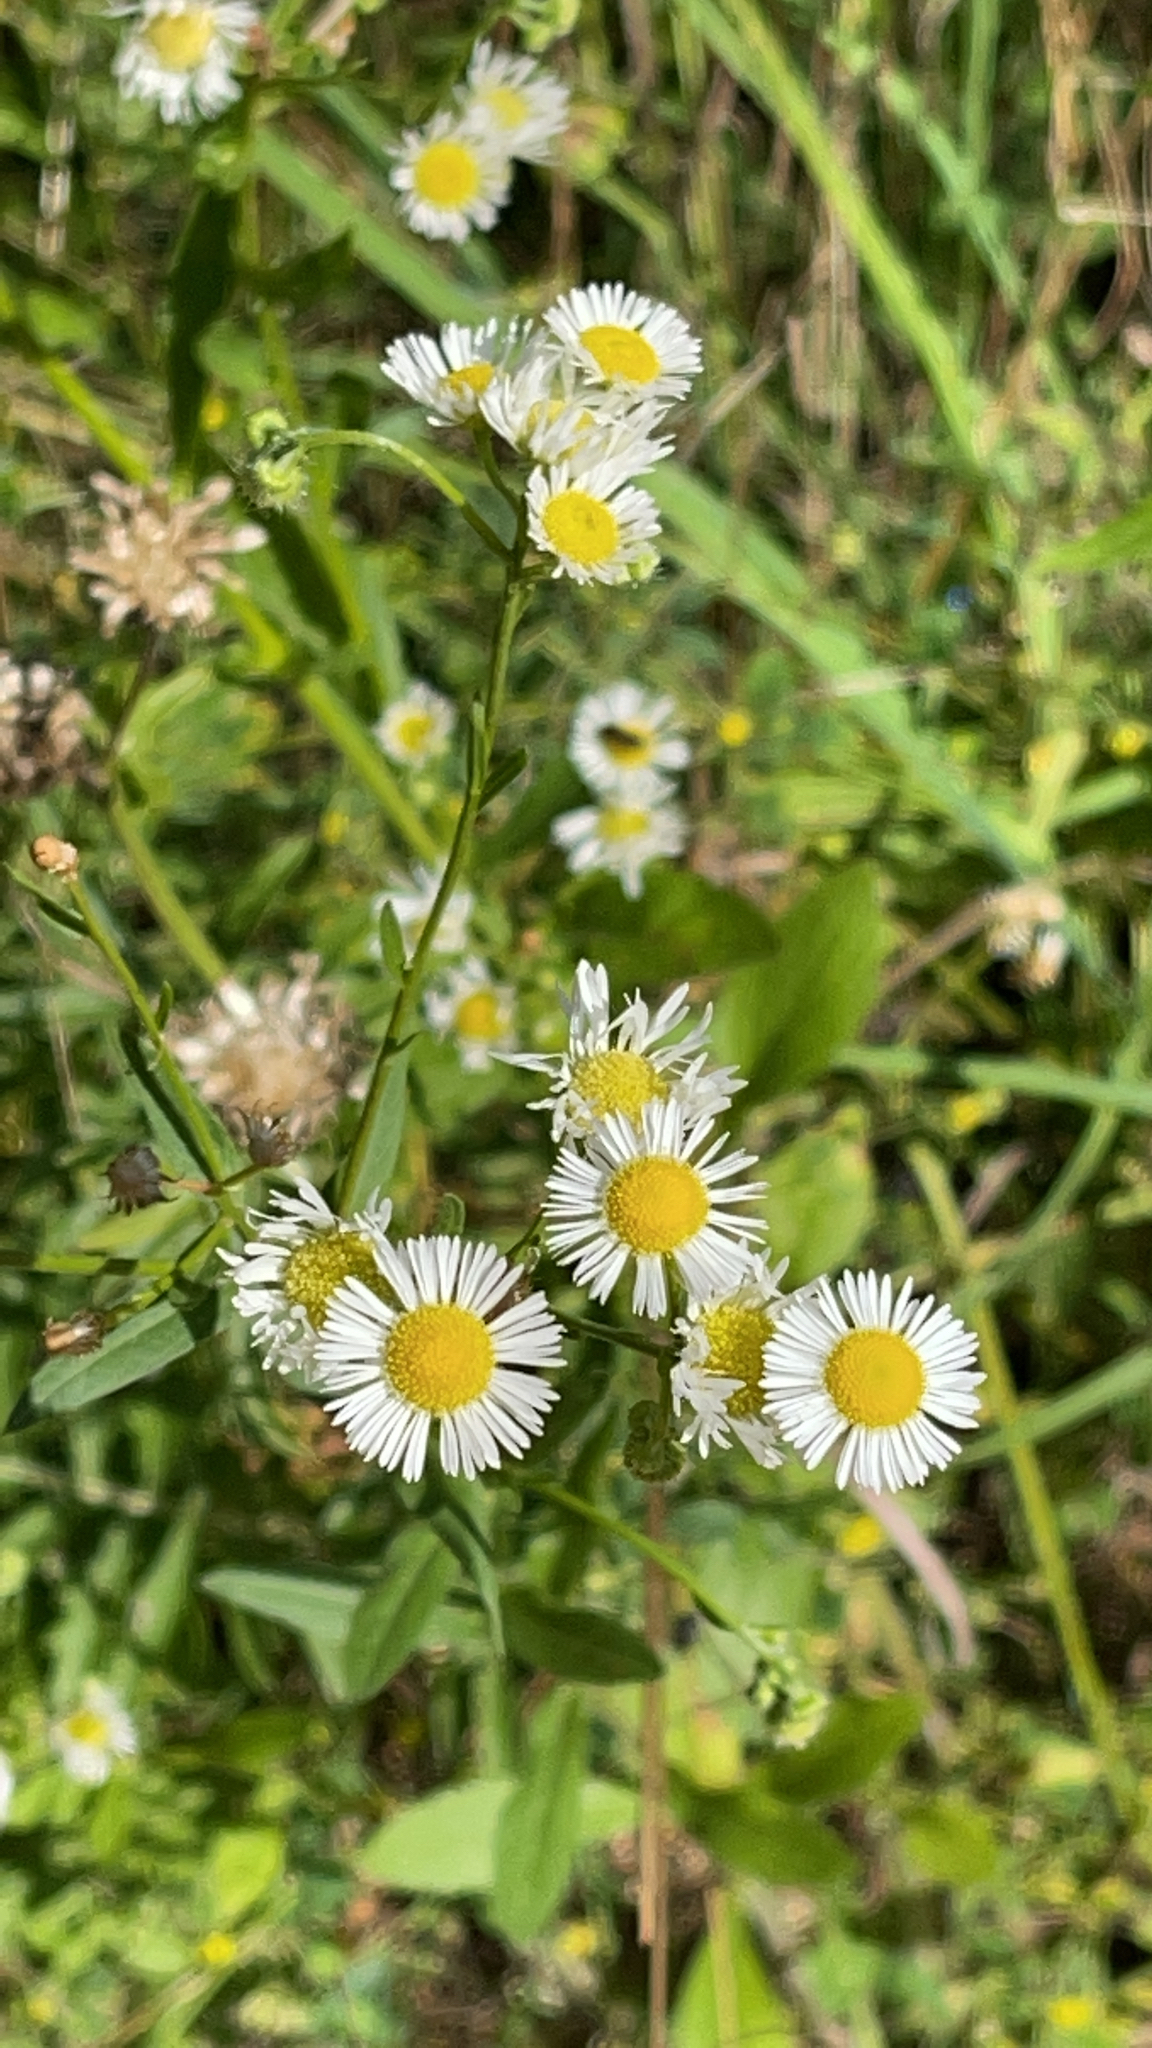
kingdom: Plantae
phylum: Tracheophyta
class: Magnoliopsida
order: Asterales
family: Asteraceae
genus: Erigeron
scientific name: Erigeron annuus
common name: Tall fleabane
